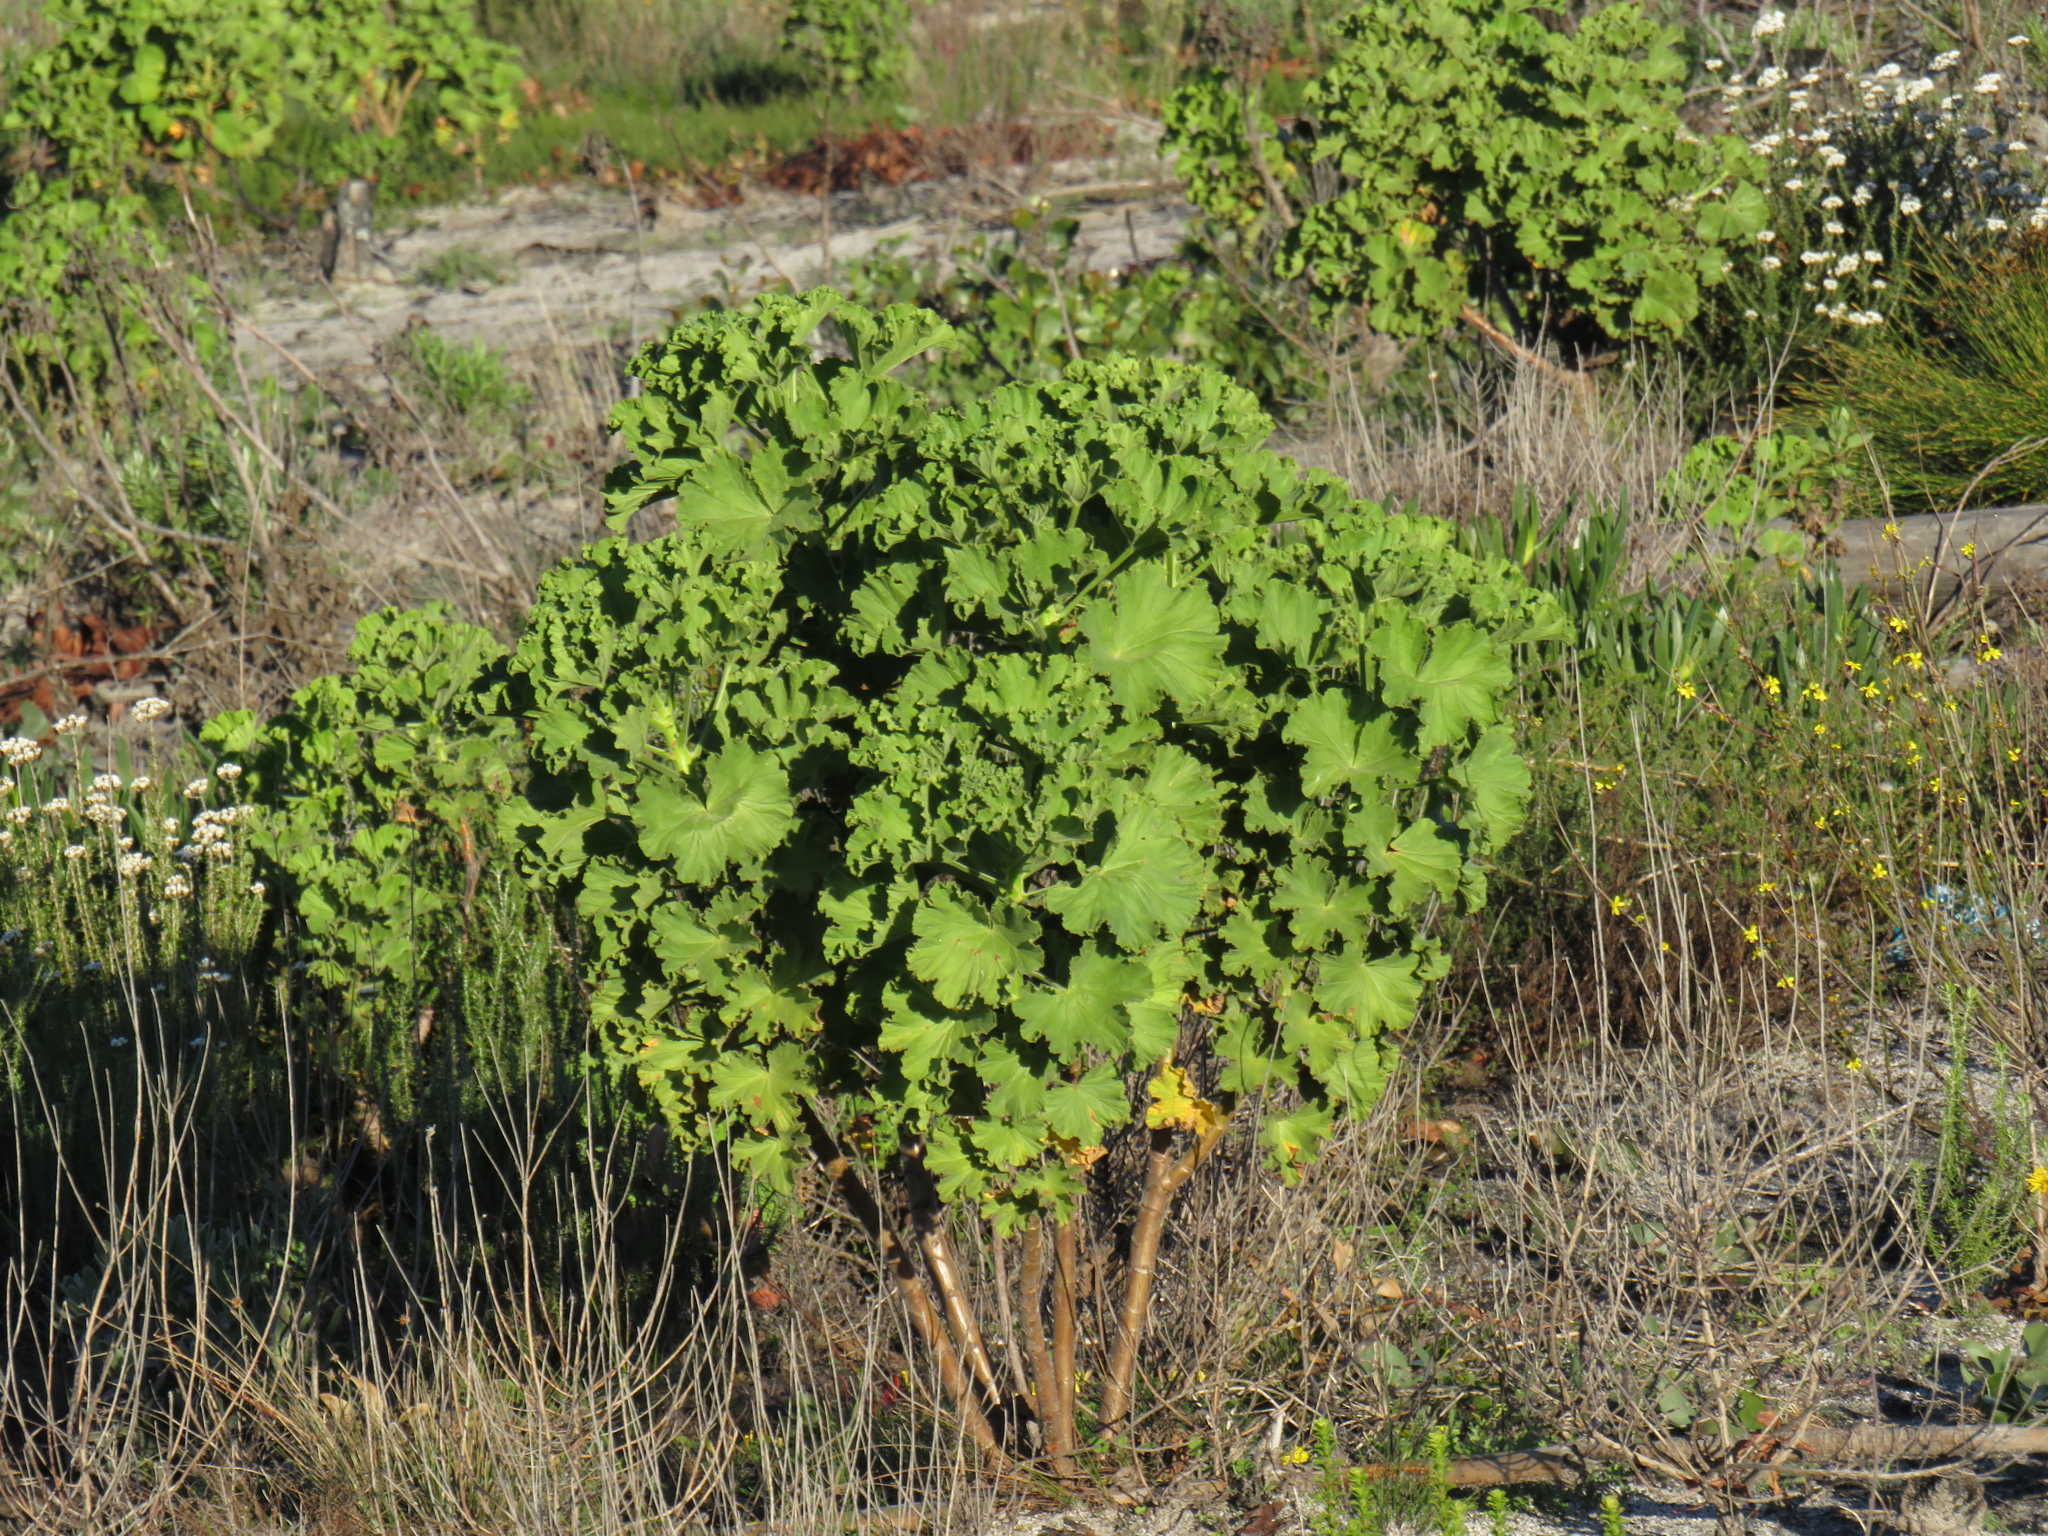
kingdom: Plantae
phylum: Tracheophyta
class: Magnoliopsida
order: Geraniales
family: Geraniaceae
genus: Pelargonium
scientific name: Pelargonium cucullatum
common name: Tree pelargonium
